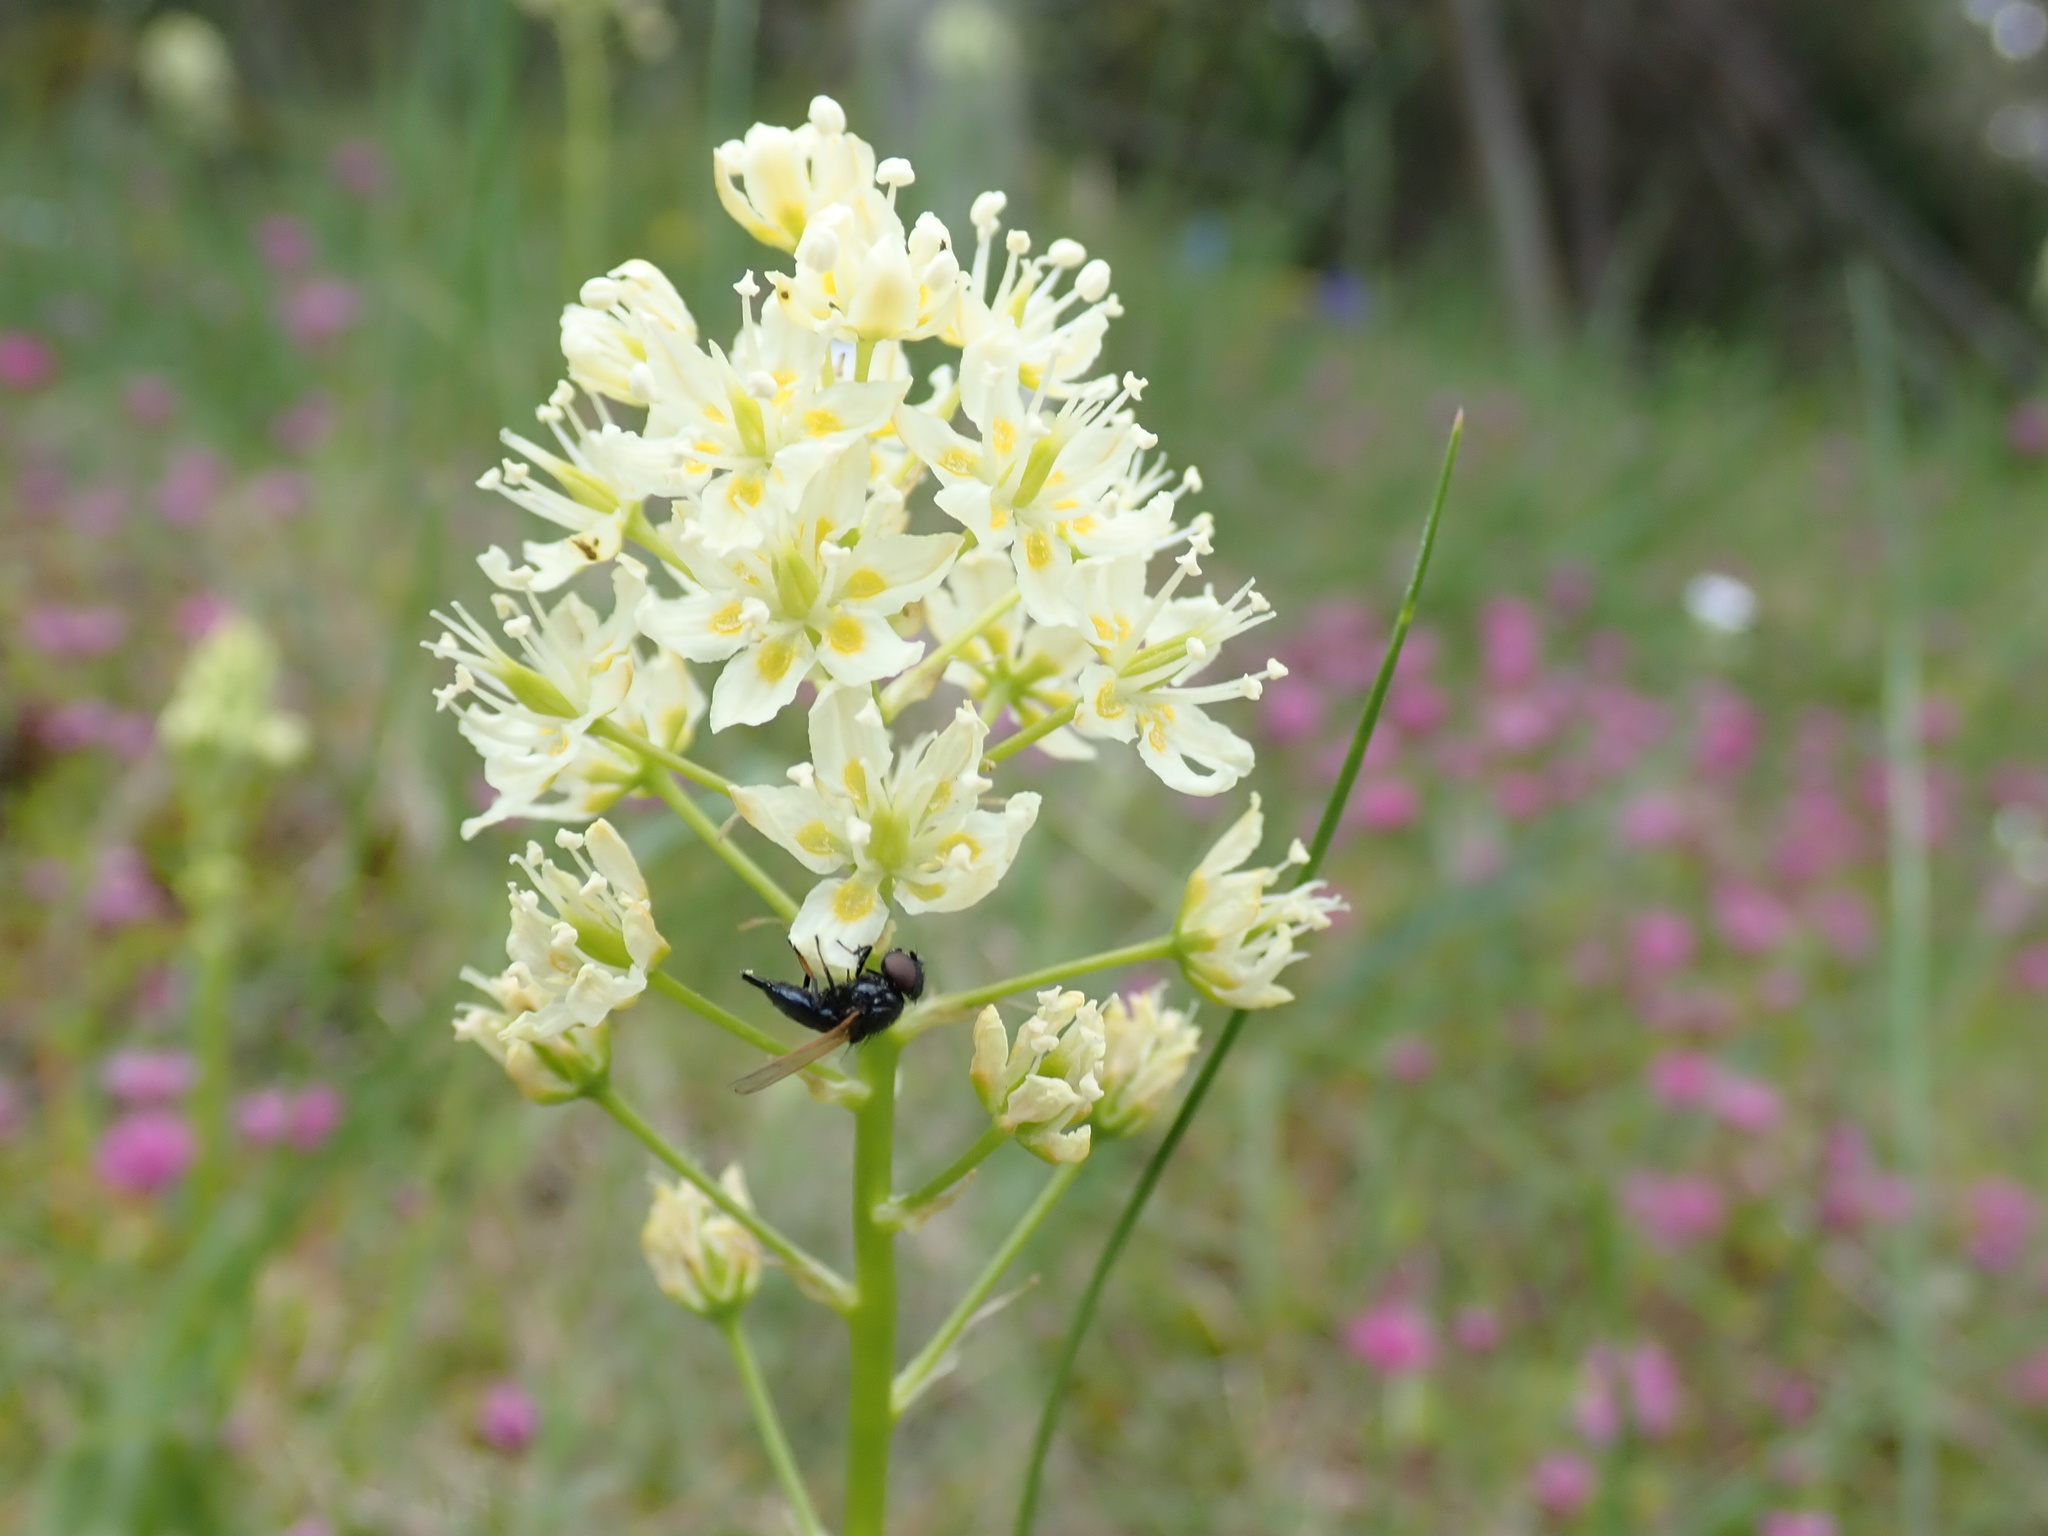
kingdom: Plantae
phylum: Tracheophyta
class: Liliopsida
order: Liliales
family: Melanthiaceae
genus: Toxicoscordion
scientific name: Toxicoscordion venenosum
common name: Meadow death camas
